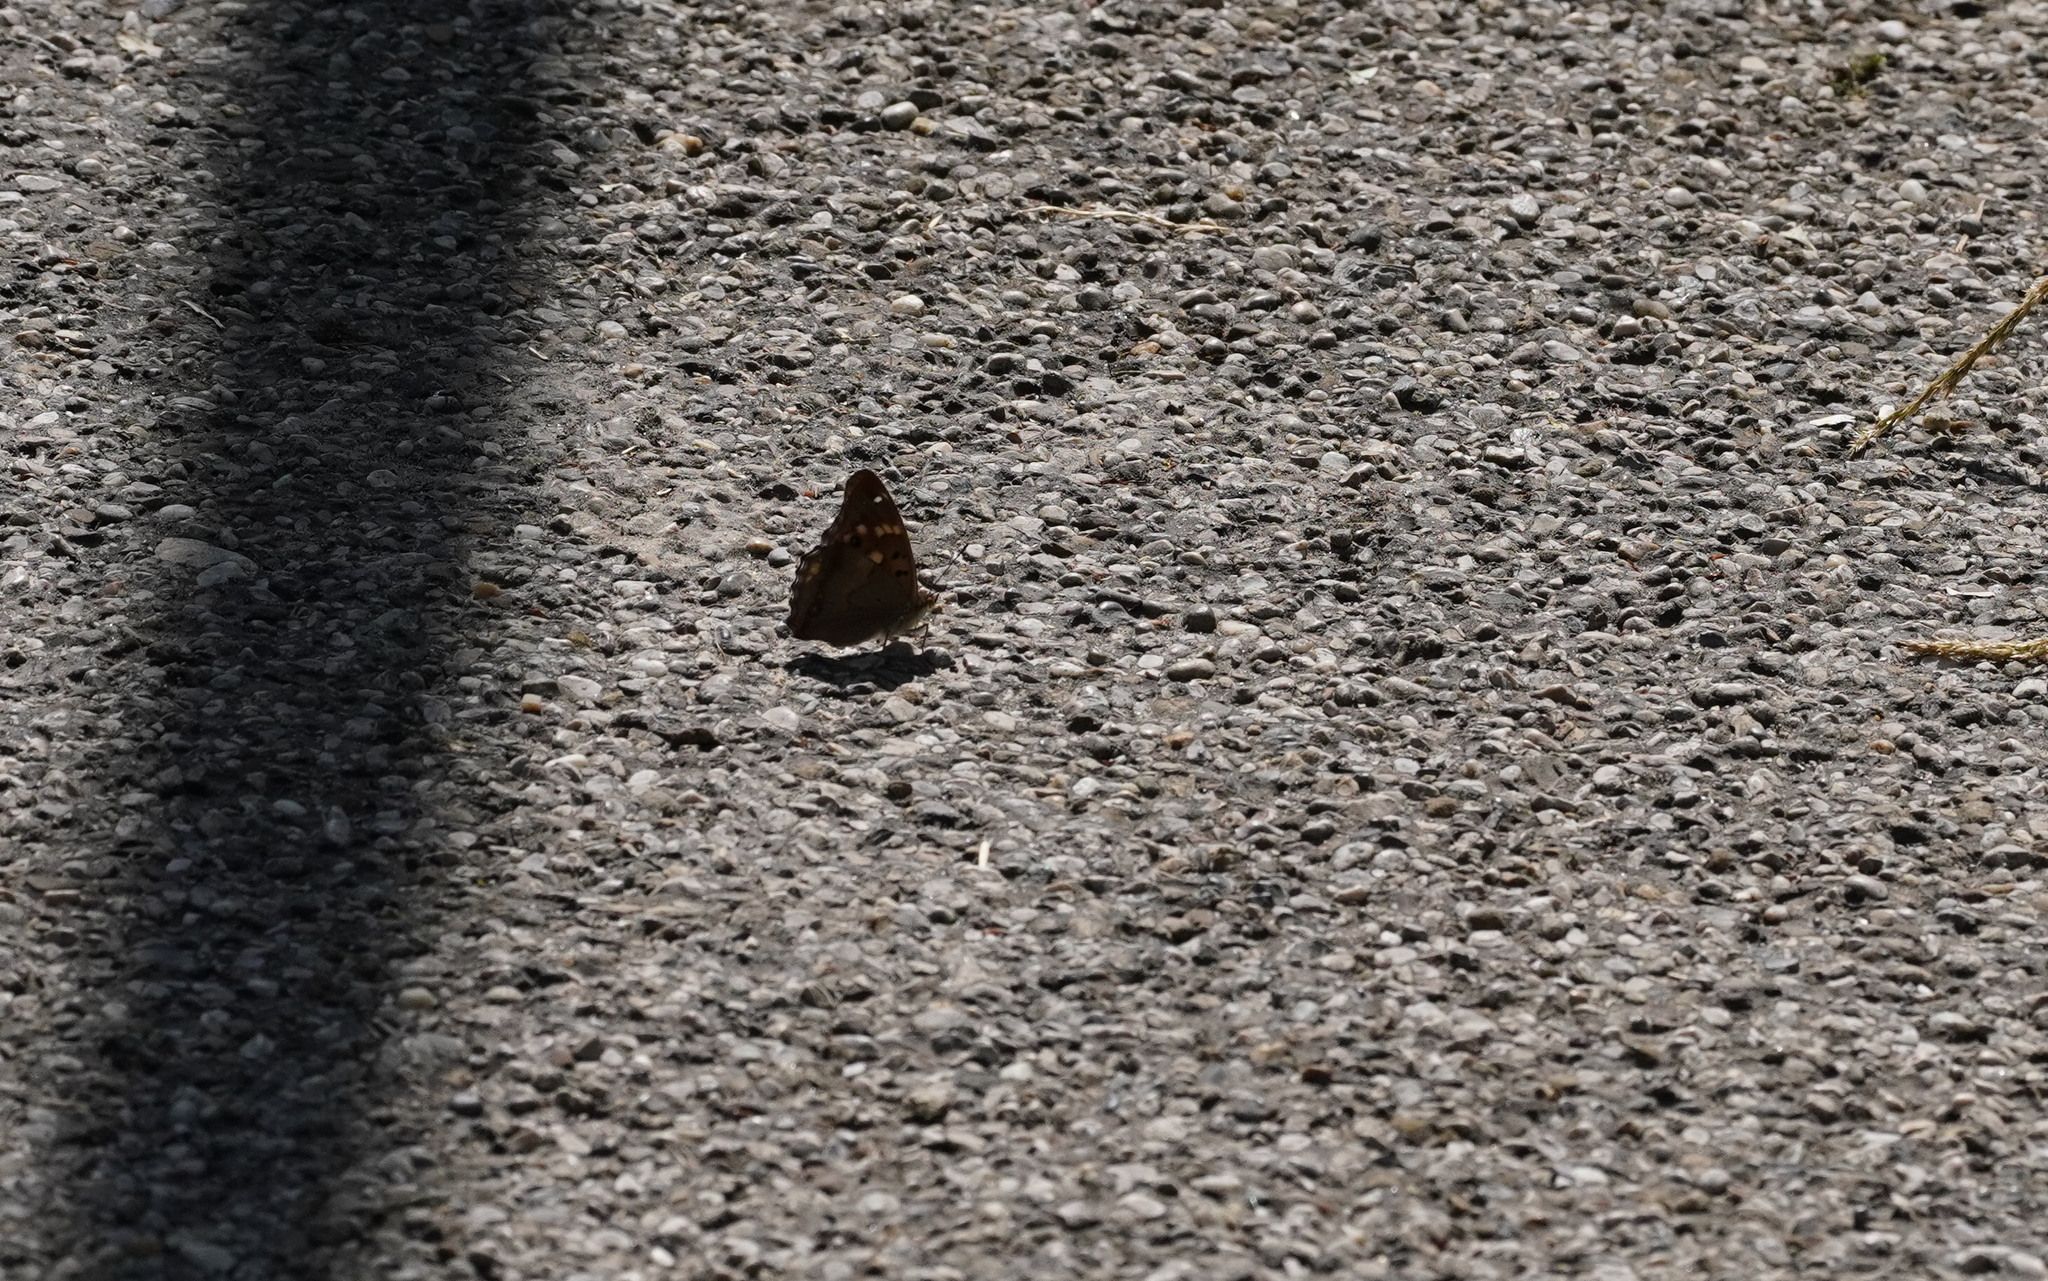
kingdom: Animalia
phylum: Arthropoda
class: Insecta
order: Lepidoptera
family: Nymphalidae
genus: Apatura
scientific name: Apatura ilia
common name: Lesser purple emperor
